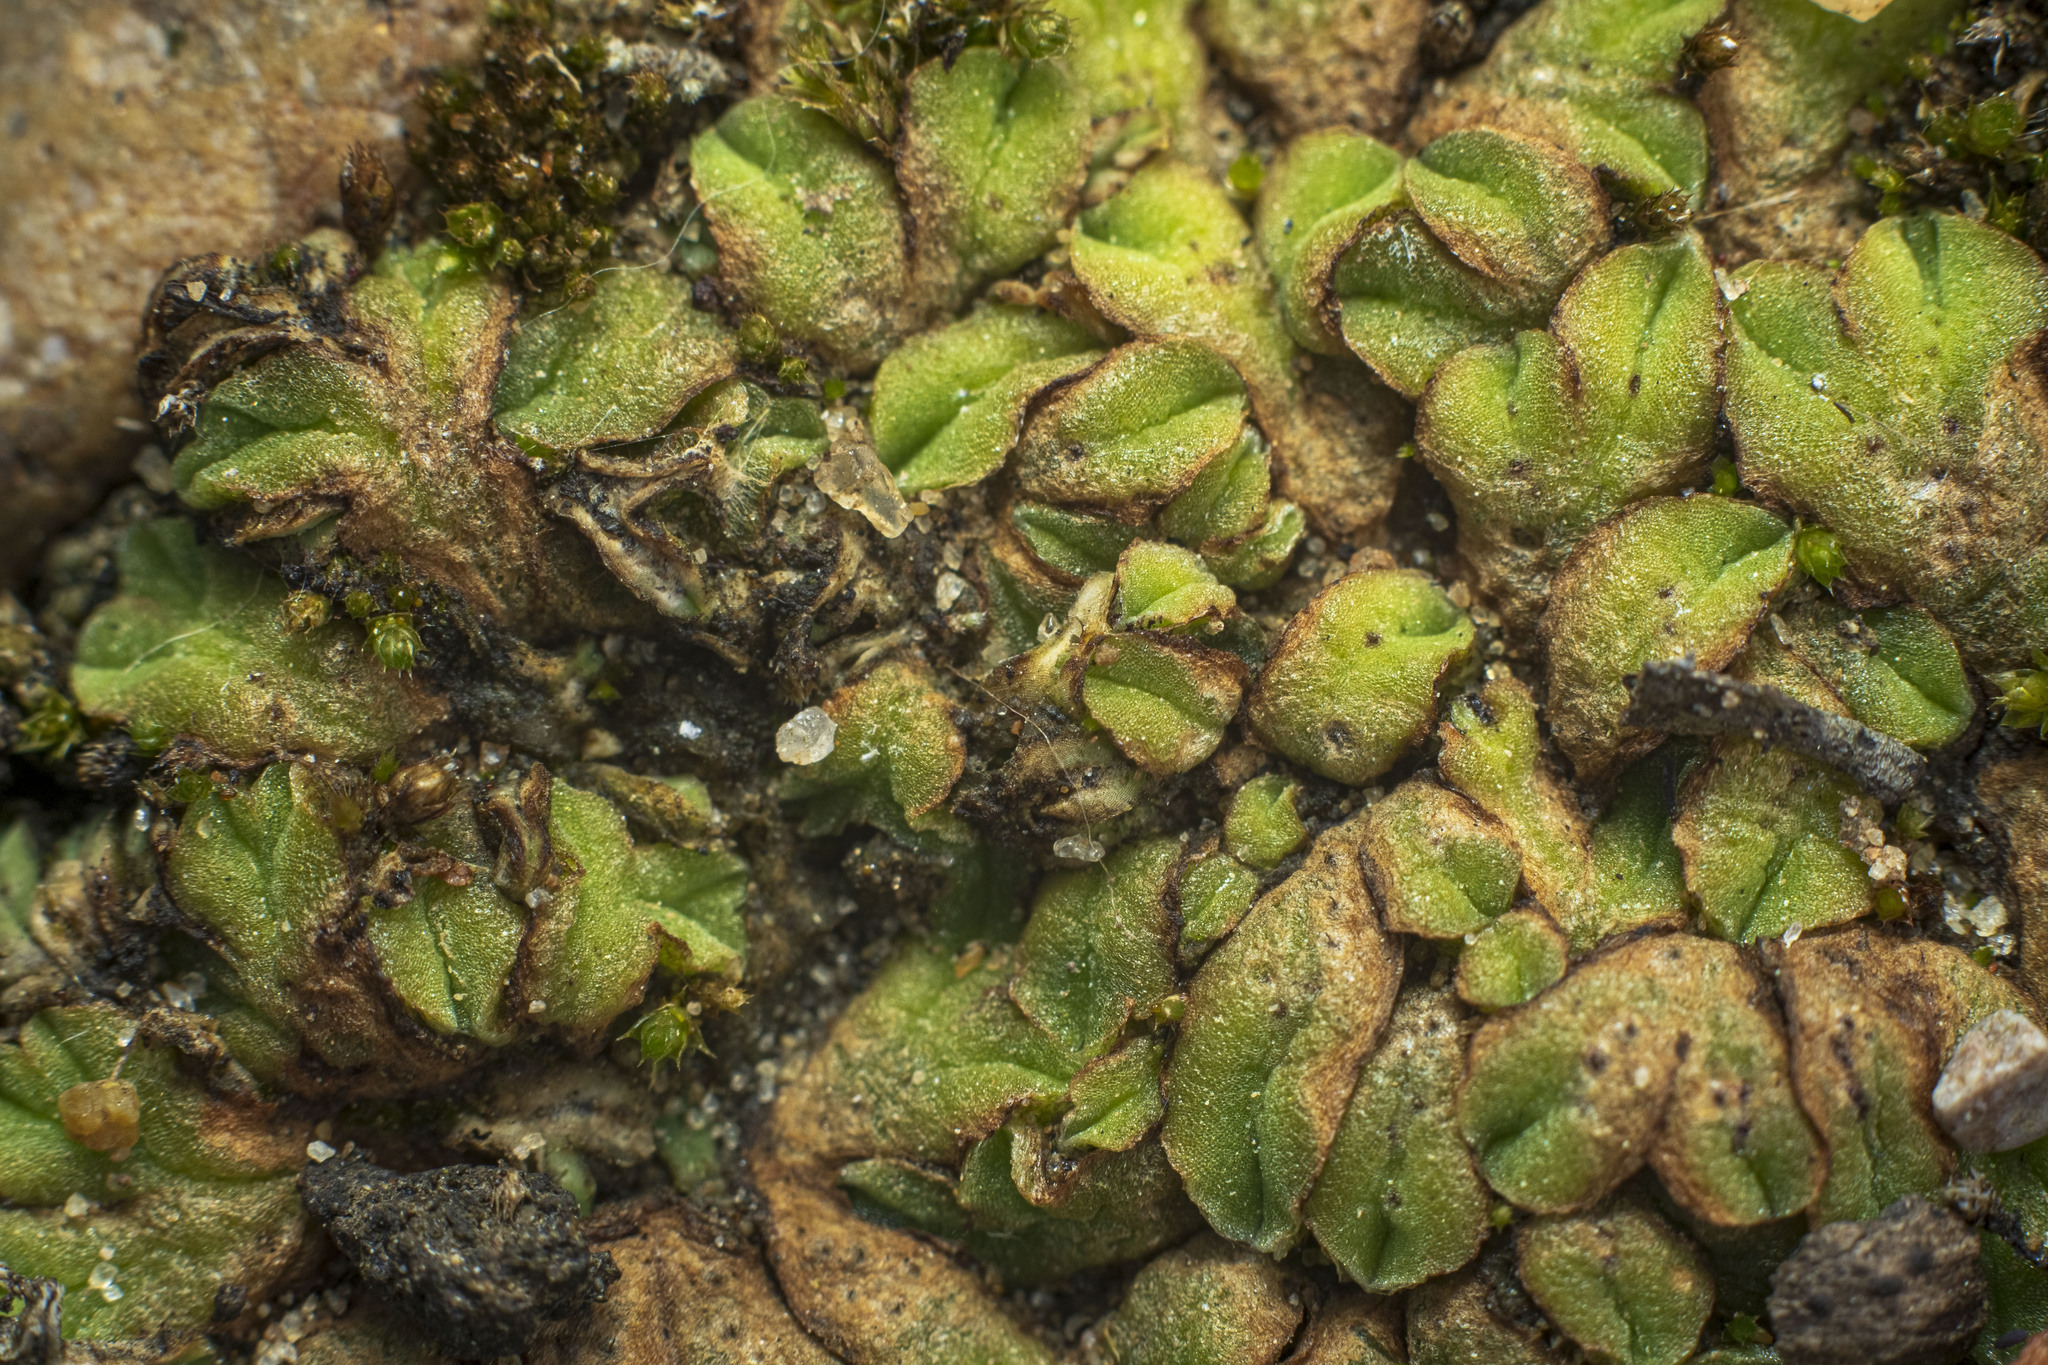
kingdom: Plantae
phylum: Marchantiophyta
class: Marchantiopsida
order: Marchantiales
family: Ricciaceae
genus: Riccia
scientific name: Riccia campbelliana
